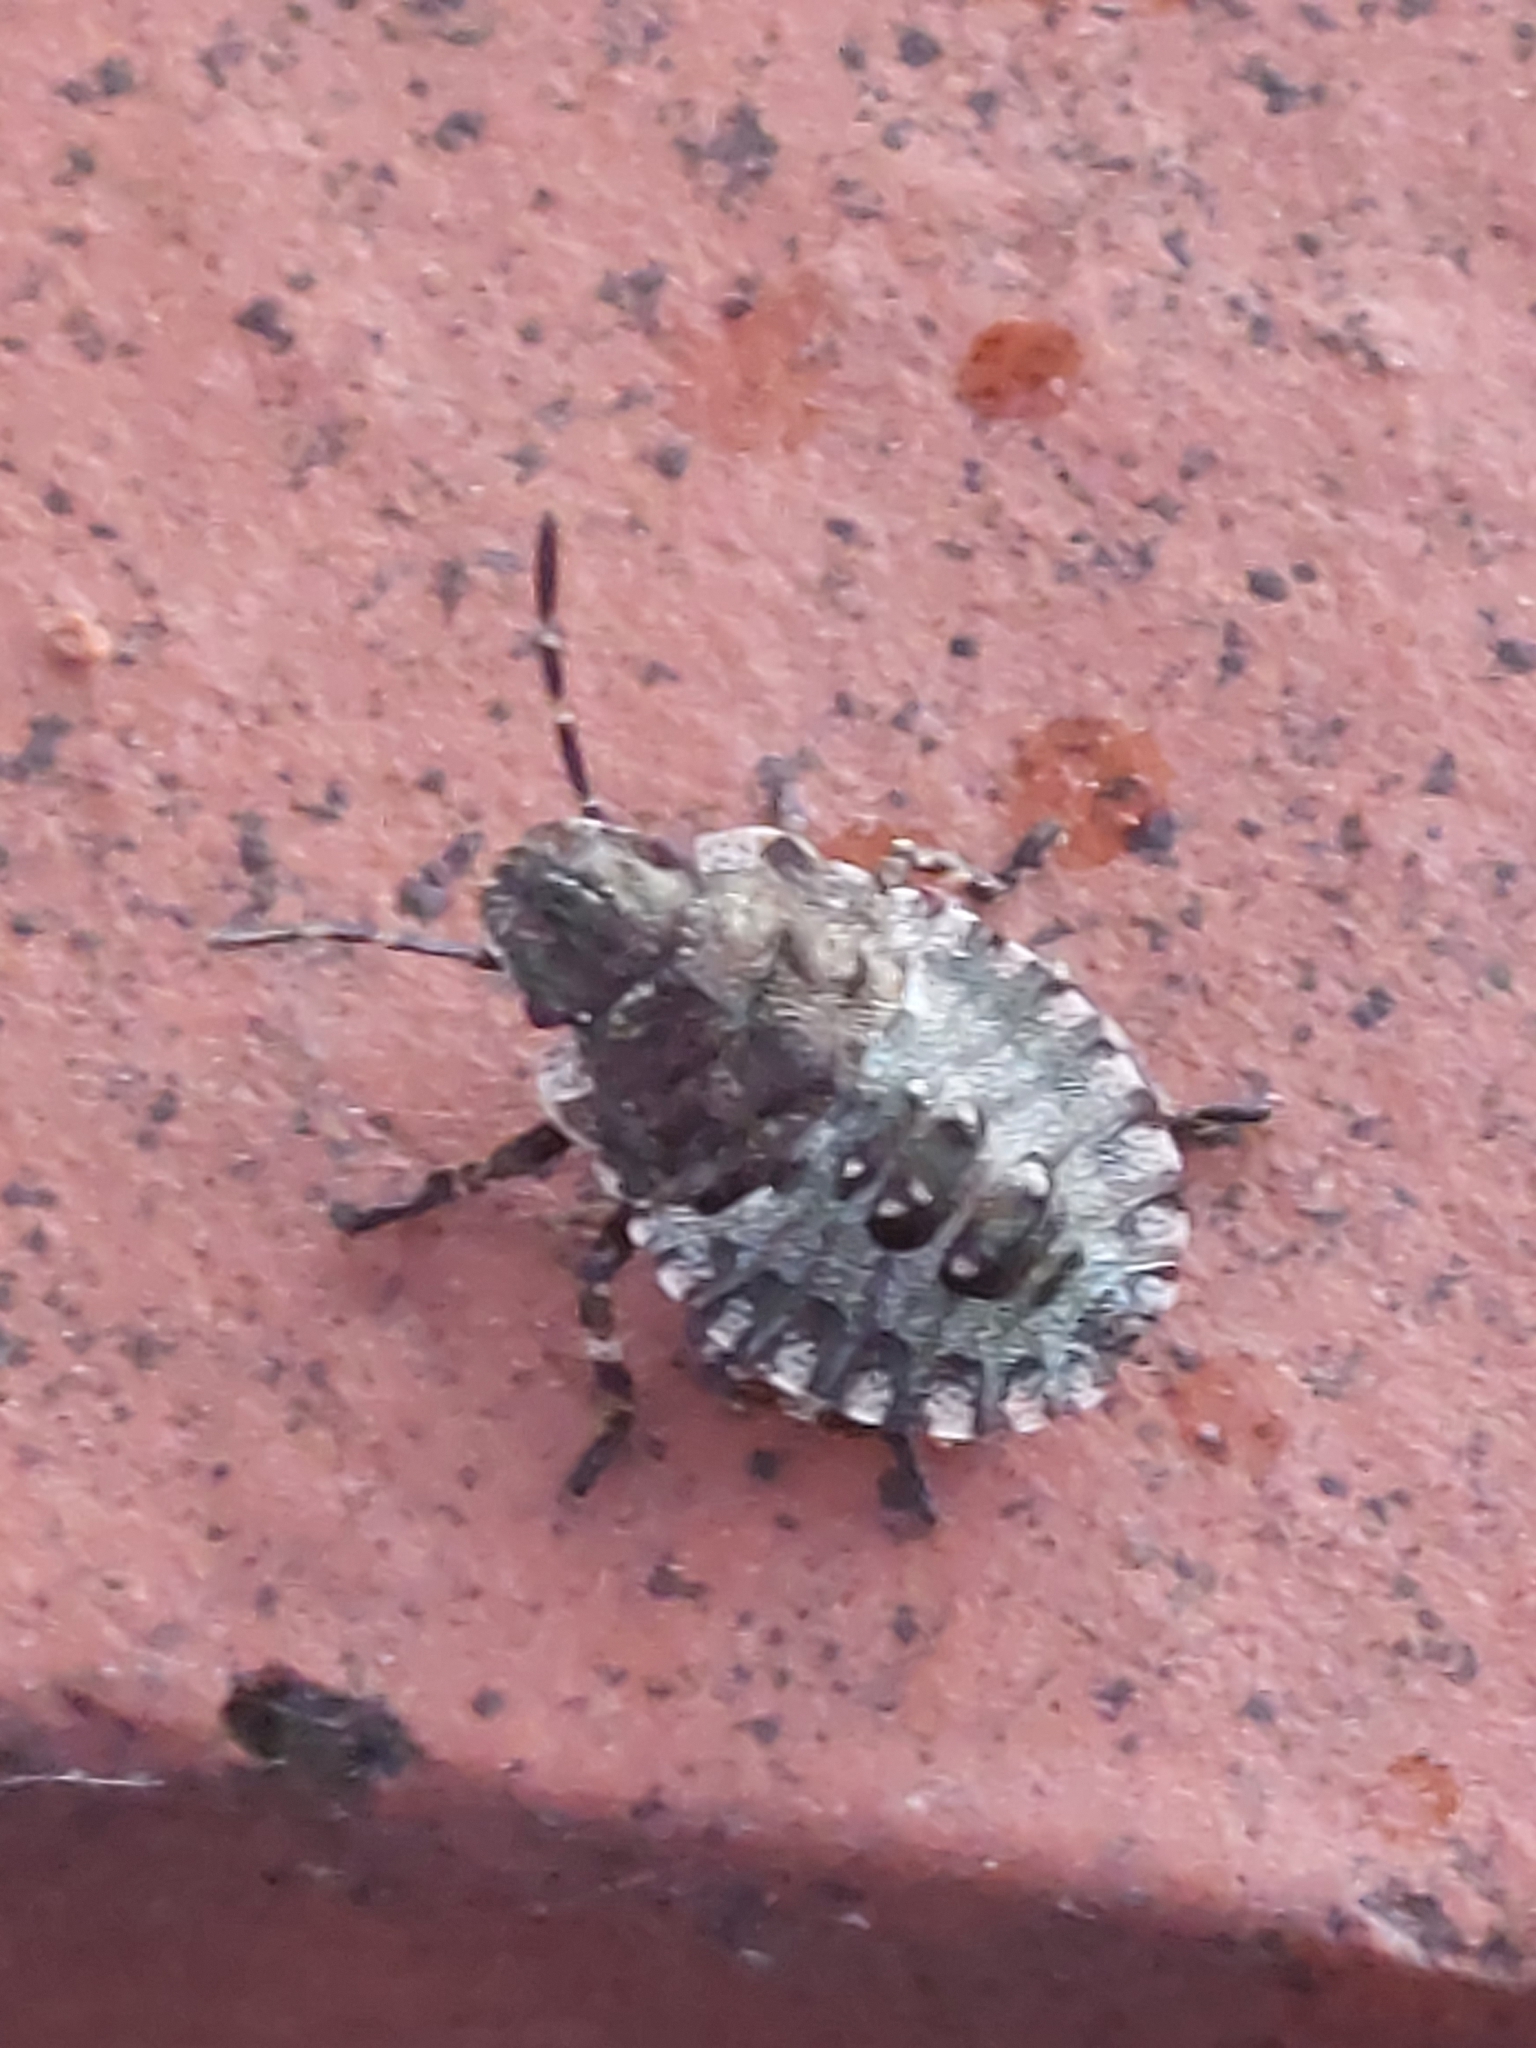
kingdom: Animalia
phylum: Arthropoda
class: Insecta
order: Hemiptera
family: Pentatomidae
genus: Pentatoma
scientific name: Pentatoma rufipes
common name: Forest bug
